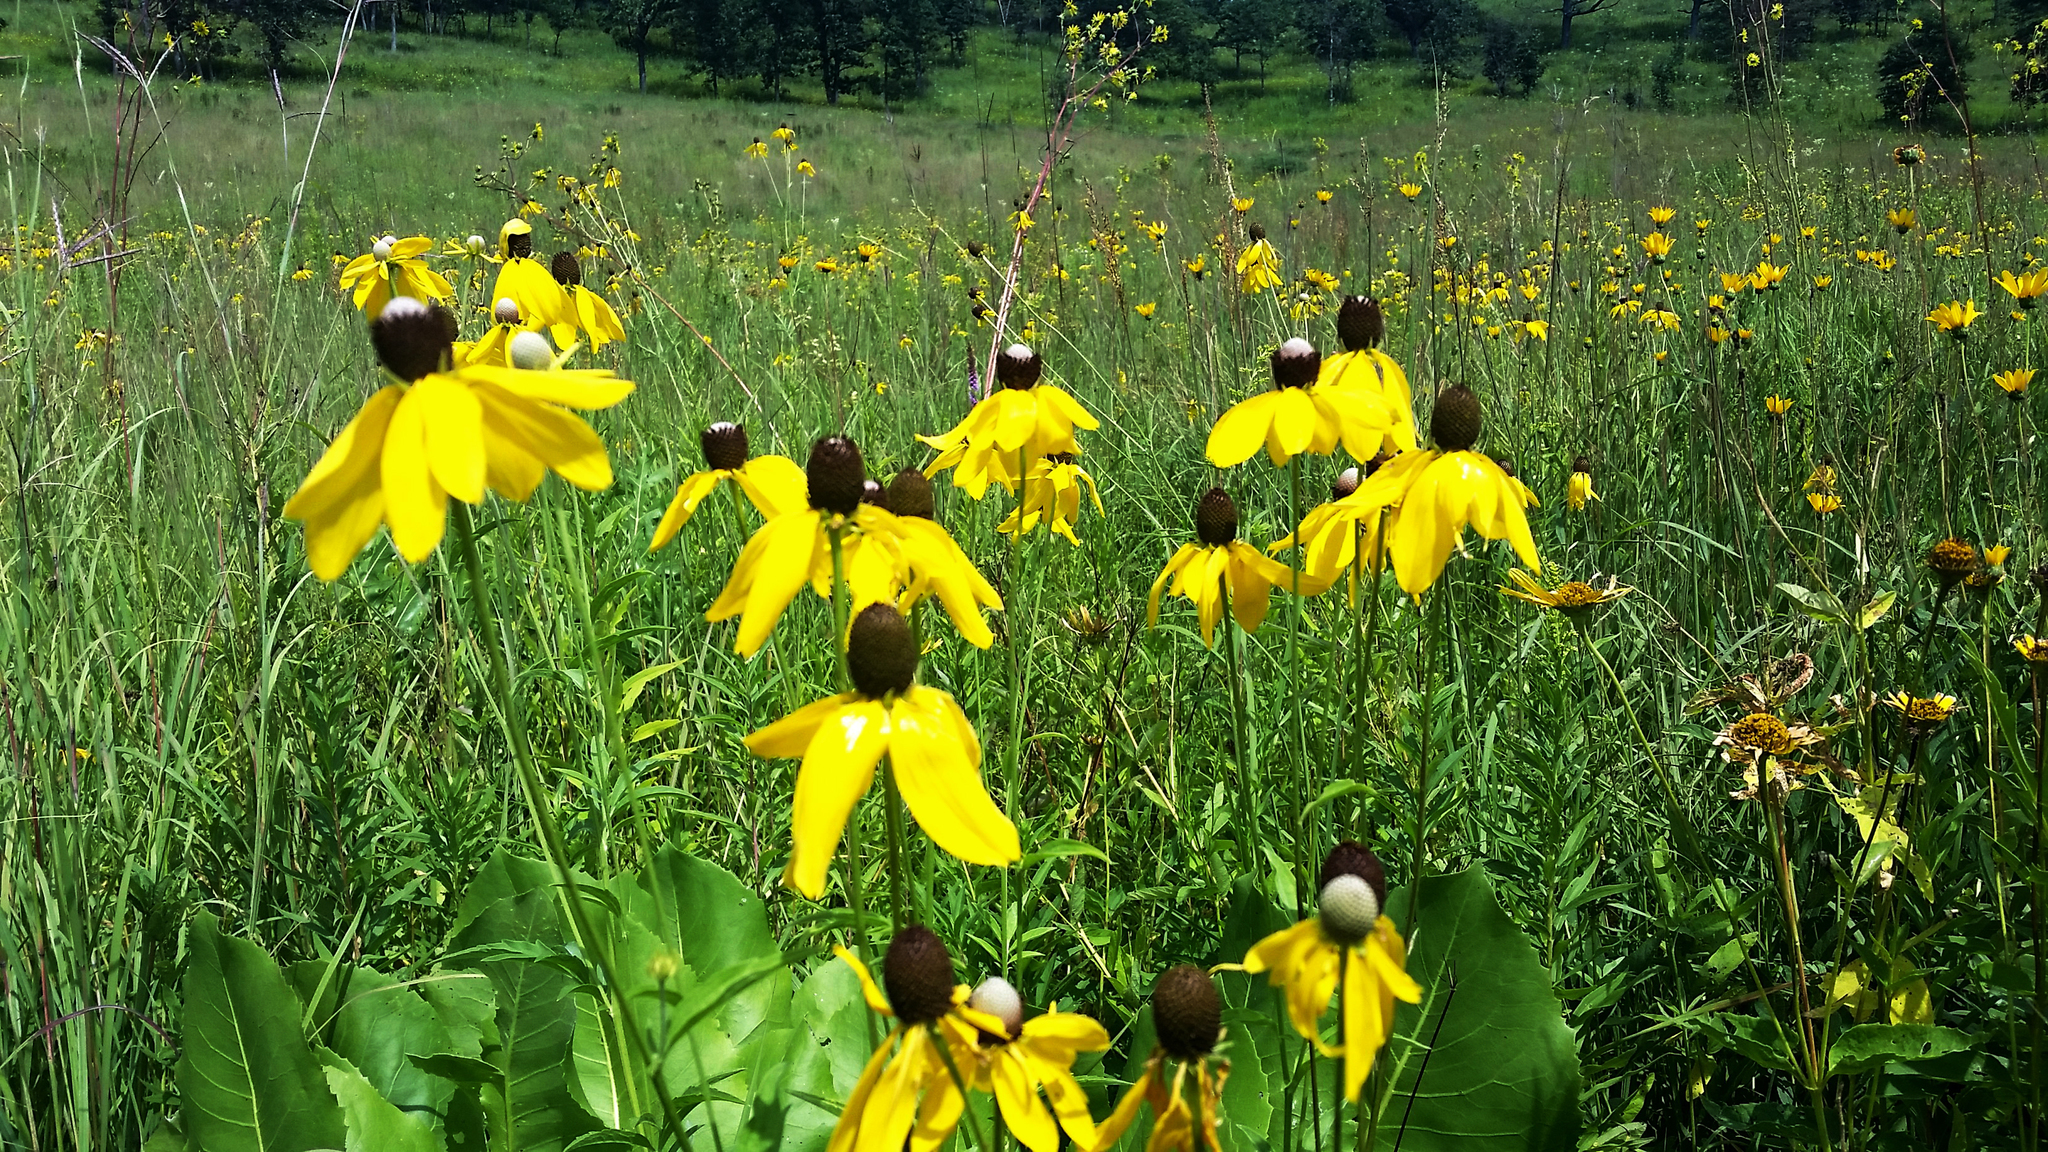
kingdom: Plantae
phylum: Tracheophyta
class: Magnoliopsida
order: Asterales
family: Asteraceae
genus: Ratibida
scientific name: Ratibida pinnata
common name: Drooping prairie-coneflower
